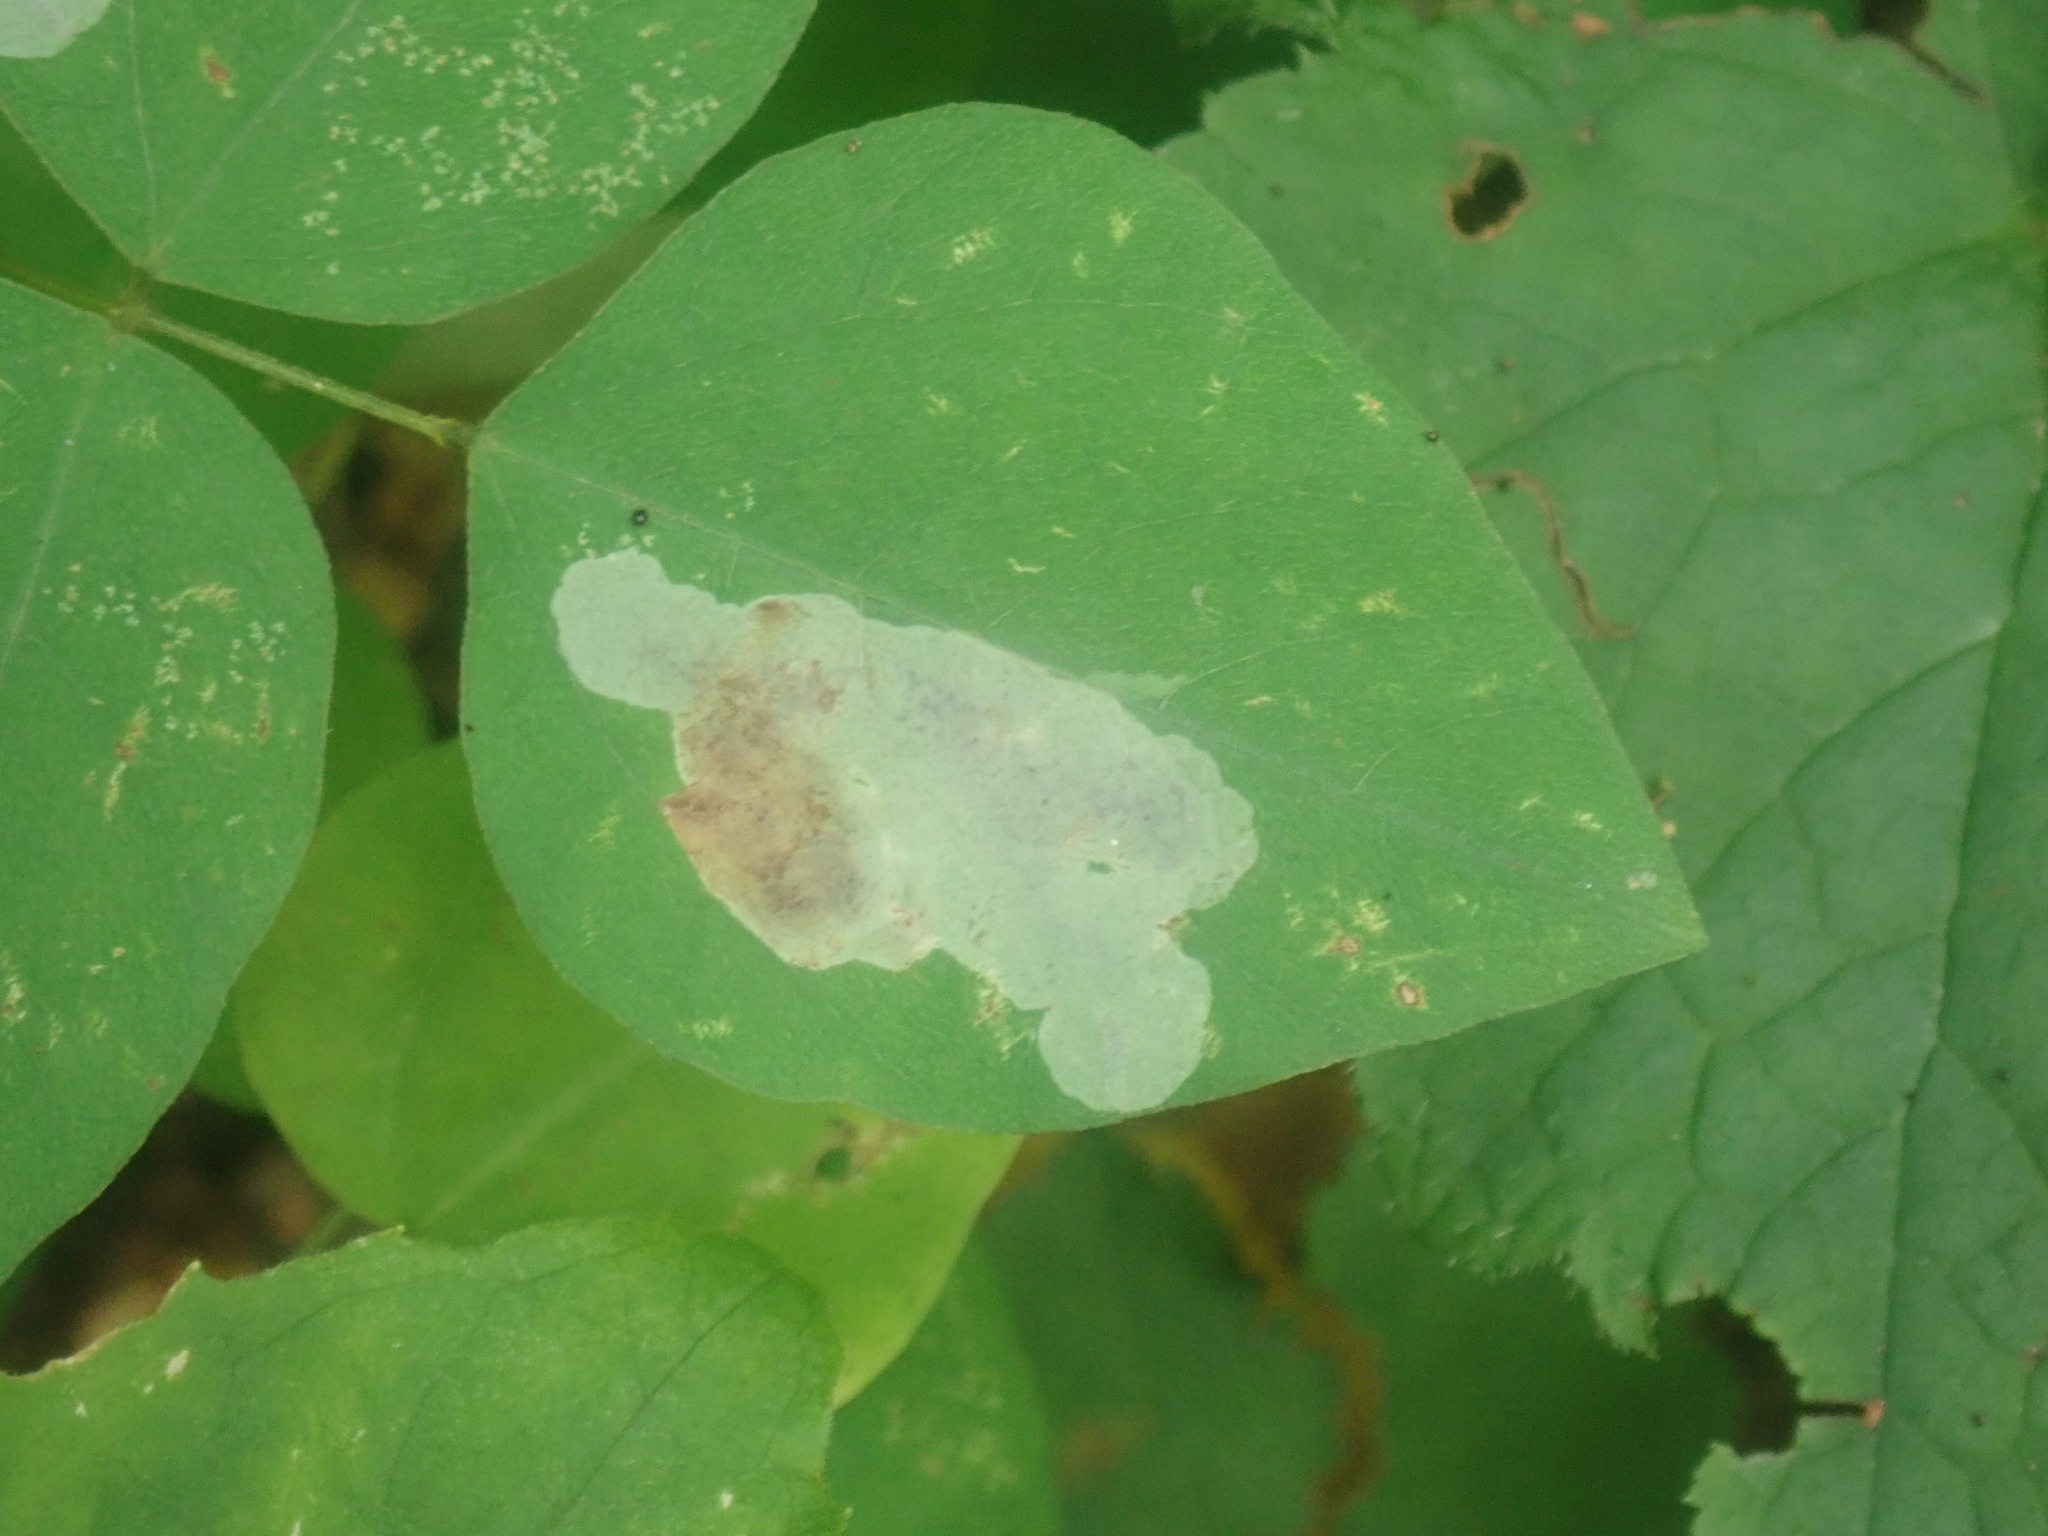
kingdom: Animalia
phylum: Arthropoda
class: Insecta
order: Lepidoptera
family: Gracillariidae
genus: Leucanthiza
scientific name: Leucanthiza amphicarpeaefoliella
